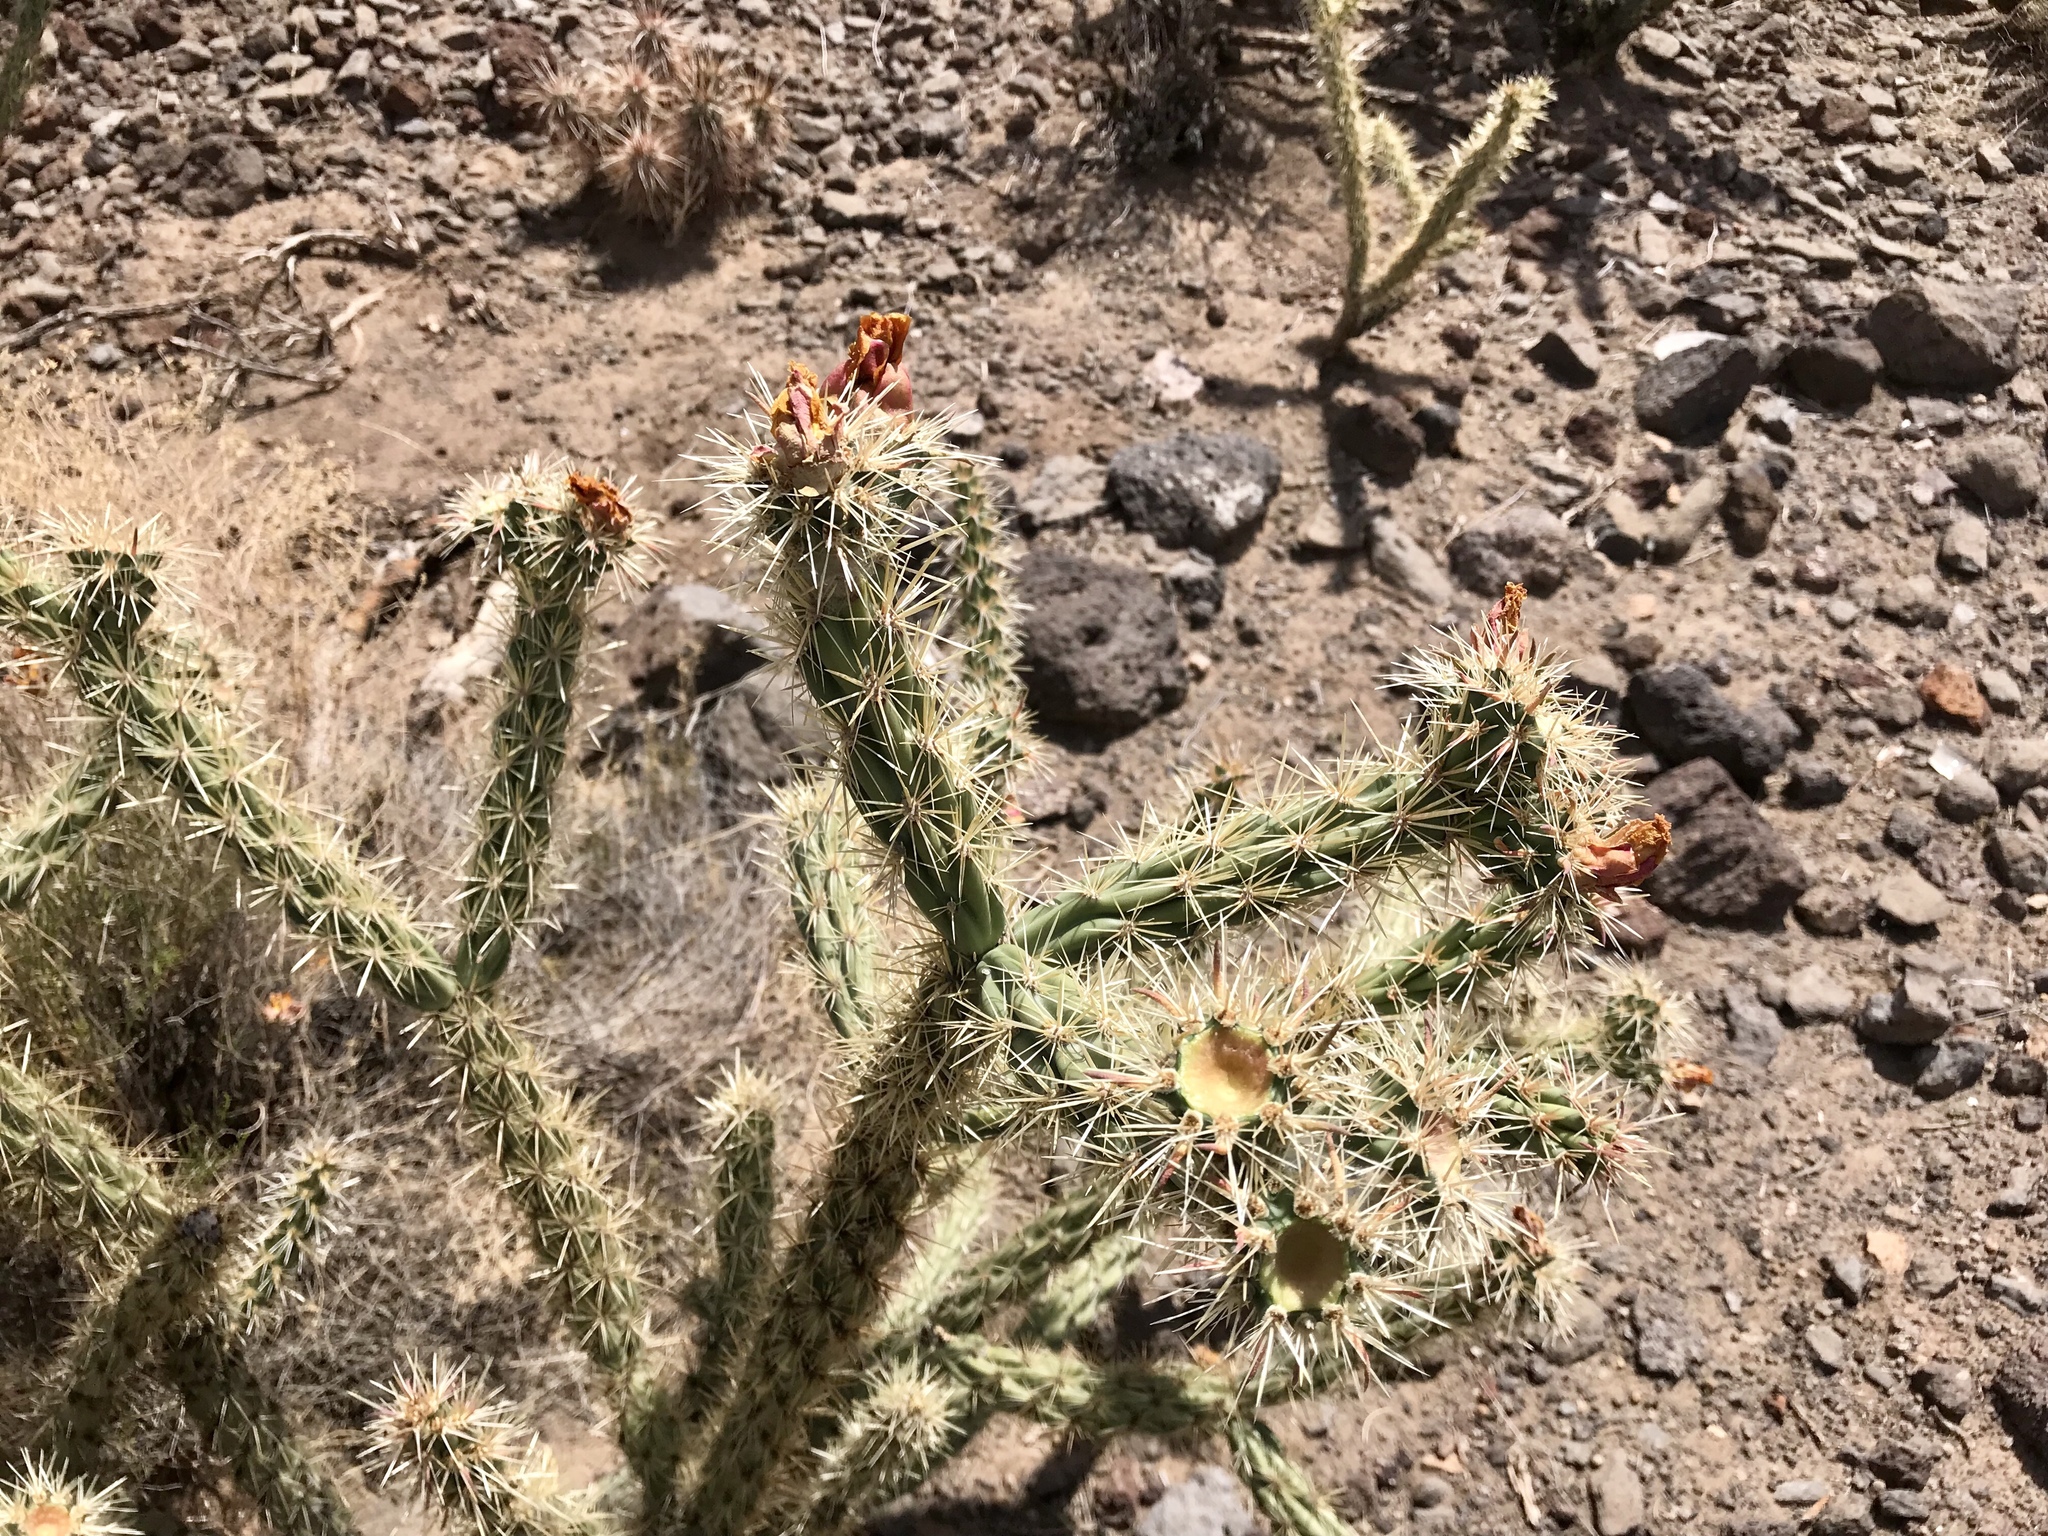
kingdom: Plantae
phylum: Tracheophyta
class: Magnoliopsida
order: Caryophyllales
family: Cactaceae
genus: Cylindropuntia
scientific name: Cylindropuntia acanthocarpa
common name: Buckhorn cholla
